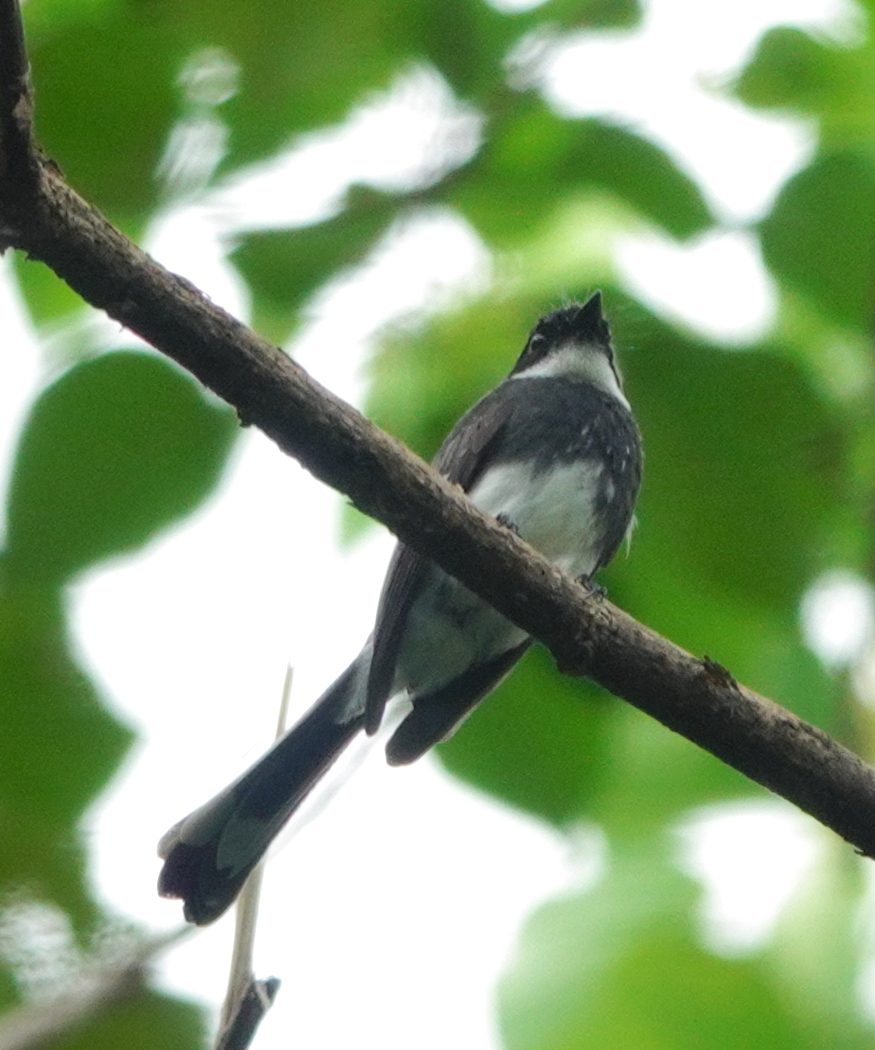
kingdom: Animalia
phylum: Chordata
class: Aves
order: Passeriformes
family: Rhipiduridae
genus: Rhipidura
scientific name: Rhipidura rufiventris
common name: Northern fantail
